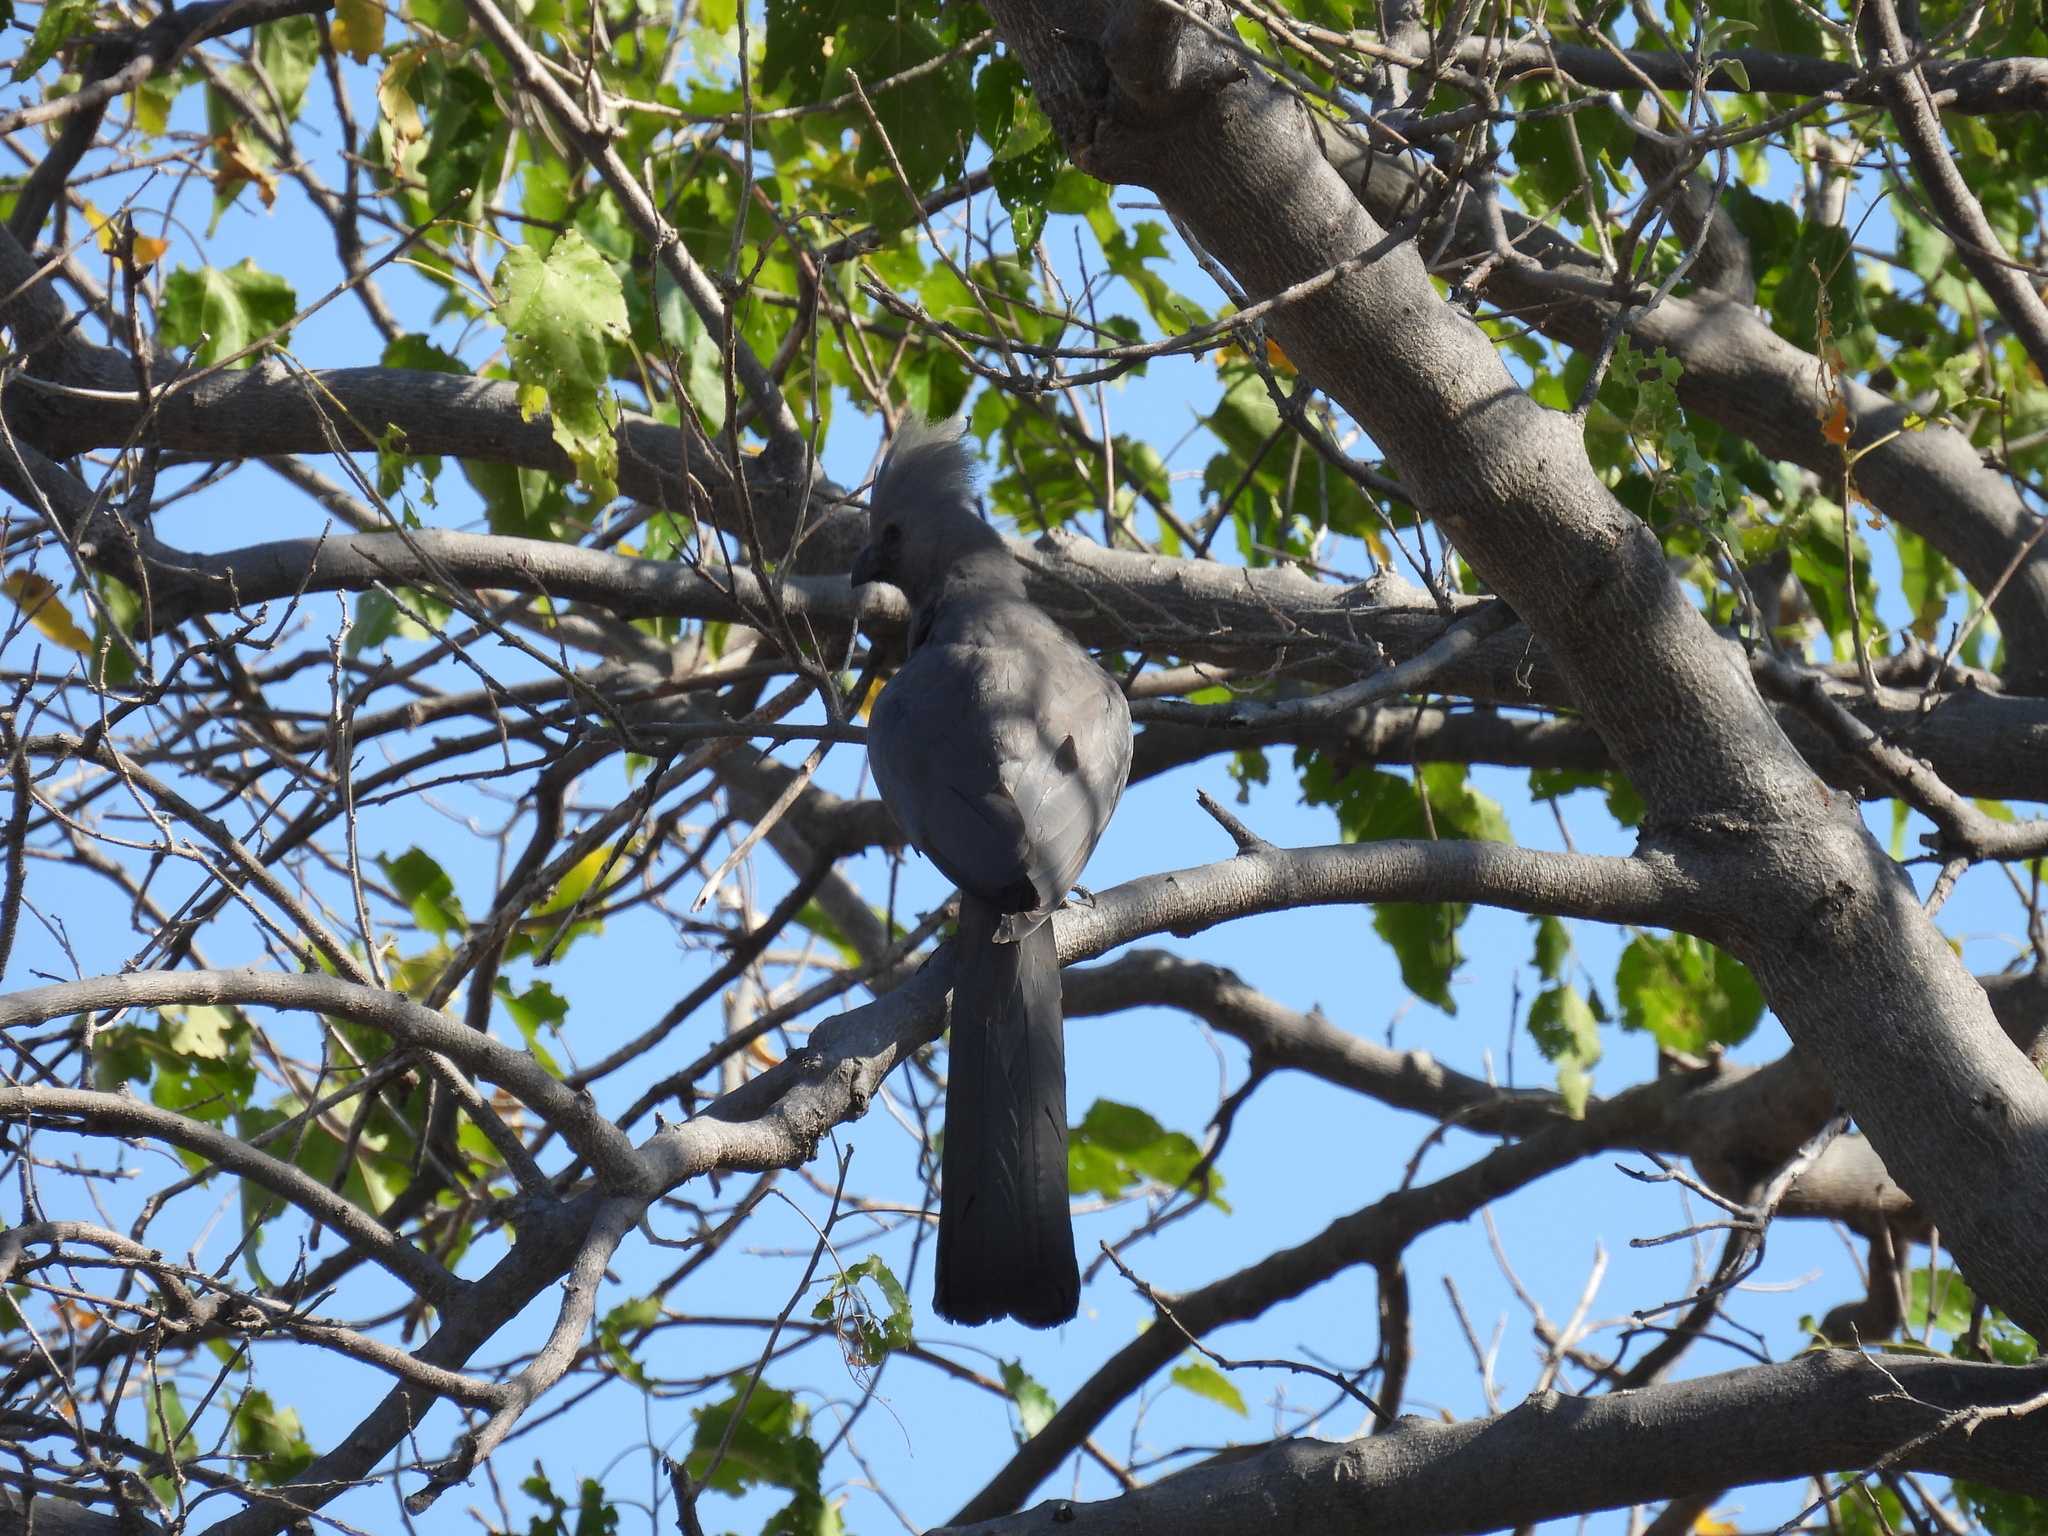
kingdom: Animalia
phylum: Chordata
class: Aves
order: Musophagiformes
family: Musophagidae
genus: Corythaixoides
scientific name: Corythaixoides concolor
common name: Grey go-away-bird
